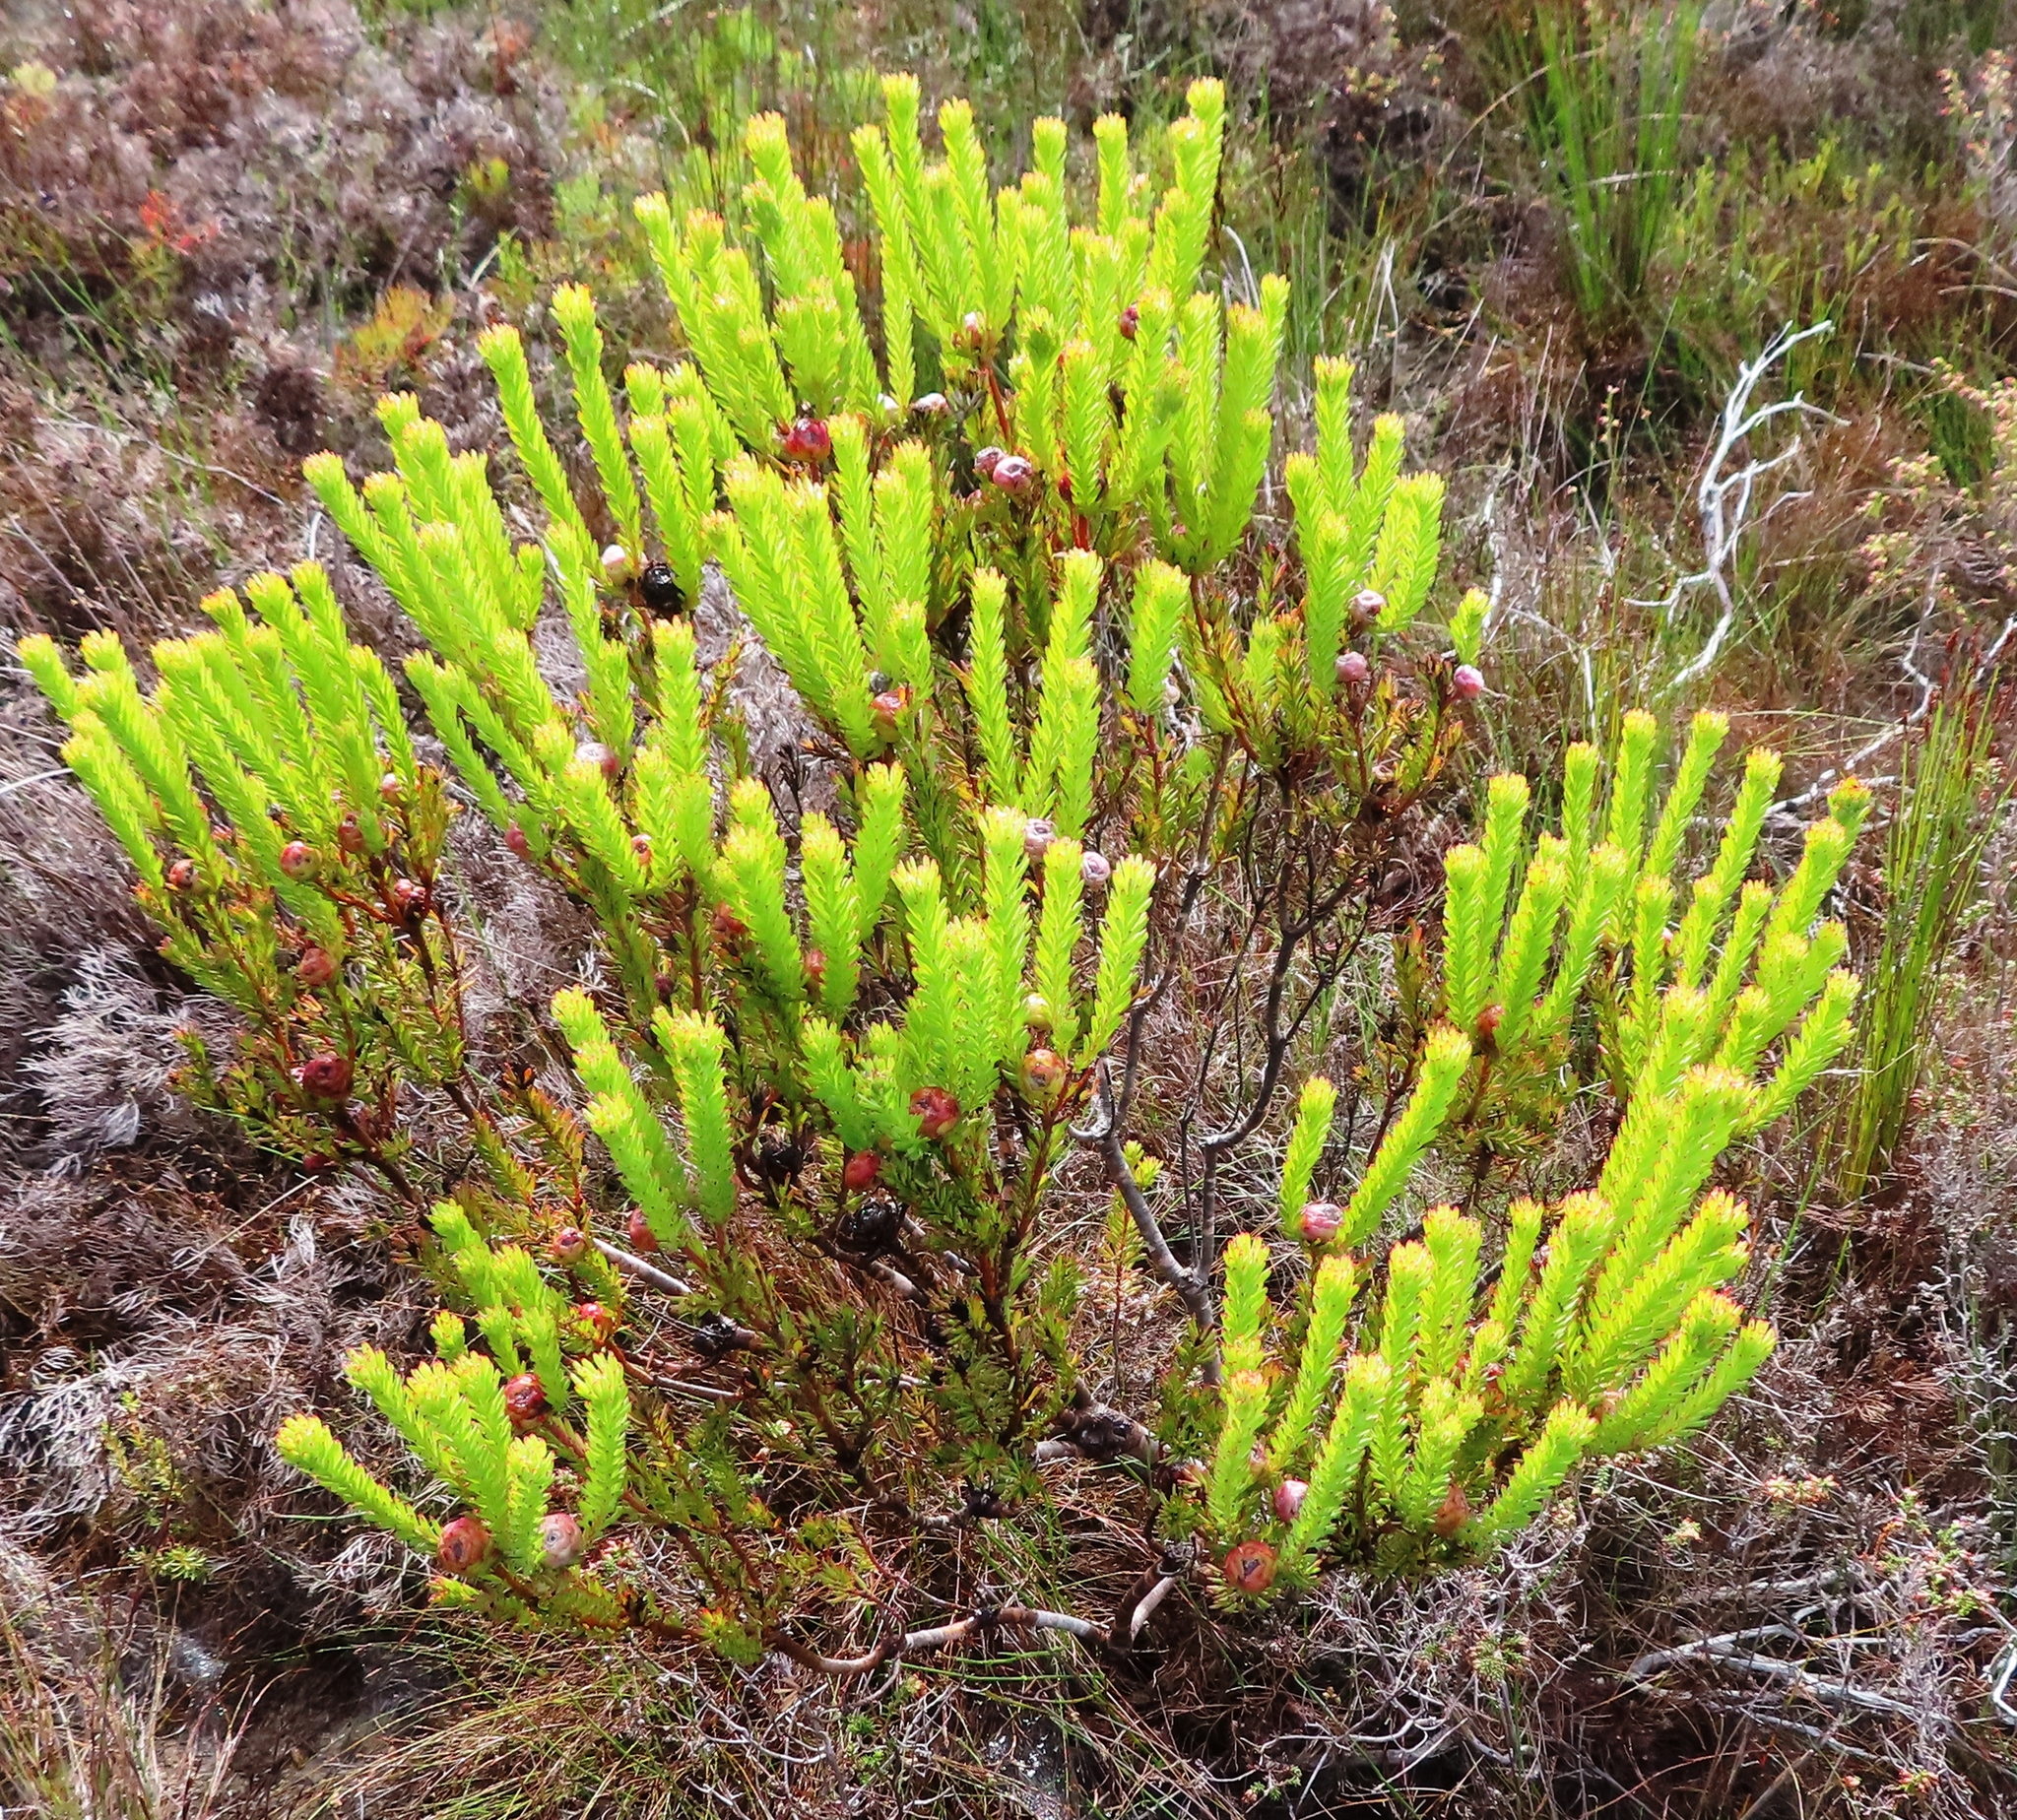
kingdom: Plantae
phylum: Tracheophyta
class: Magnoliopsida
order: Proteales
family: Proteaceae
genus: Leucadendron
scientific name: Leucadendron linifolium
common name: Line-leaf conebush
